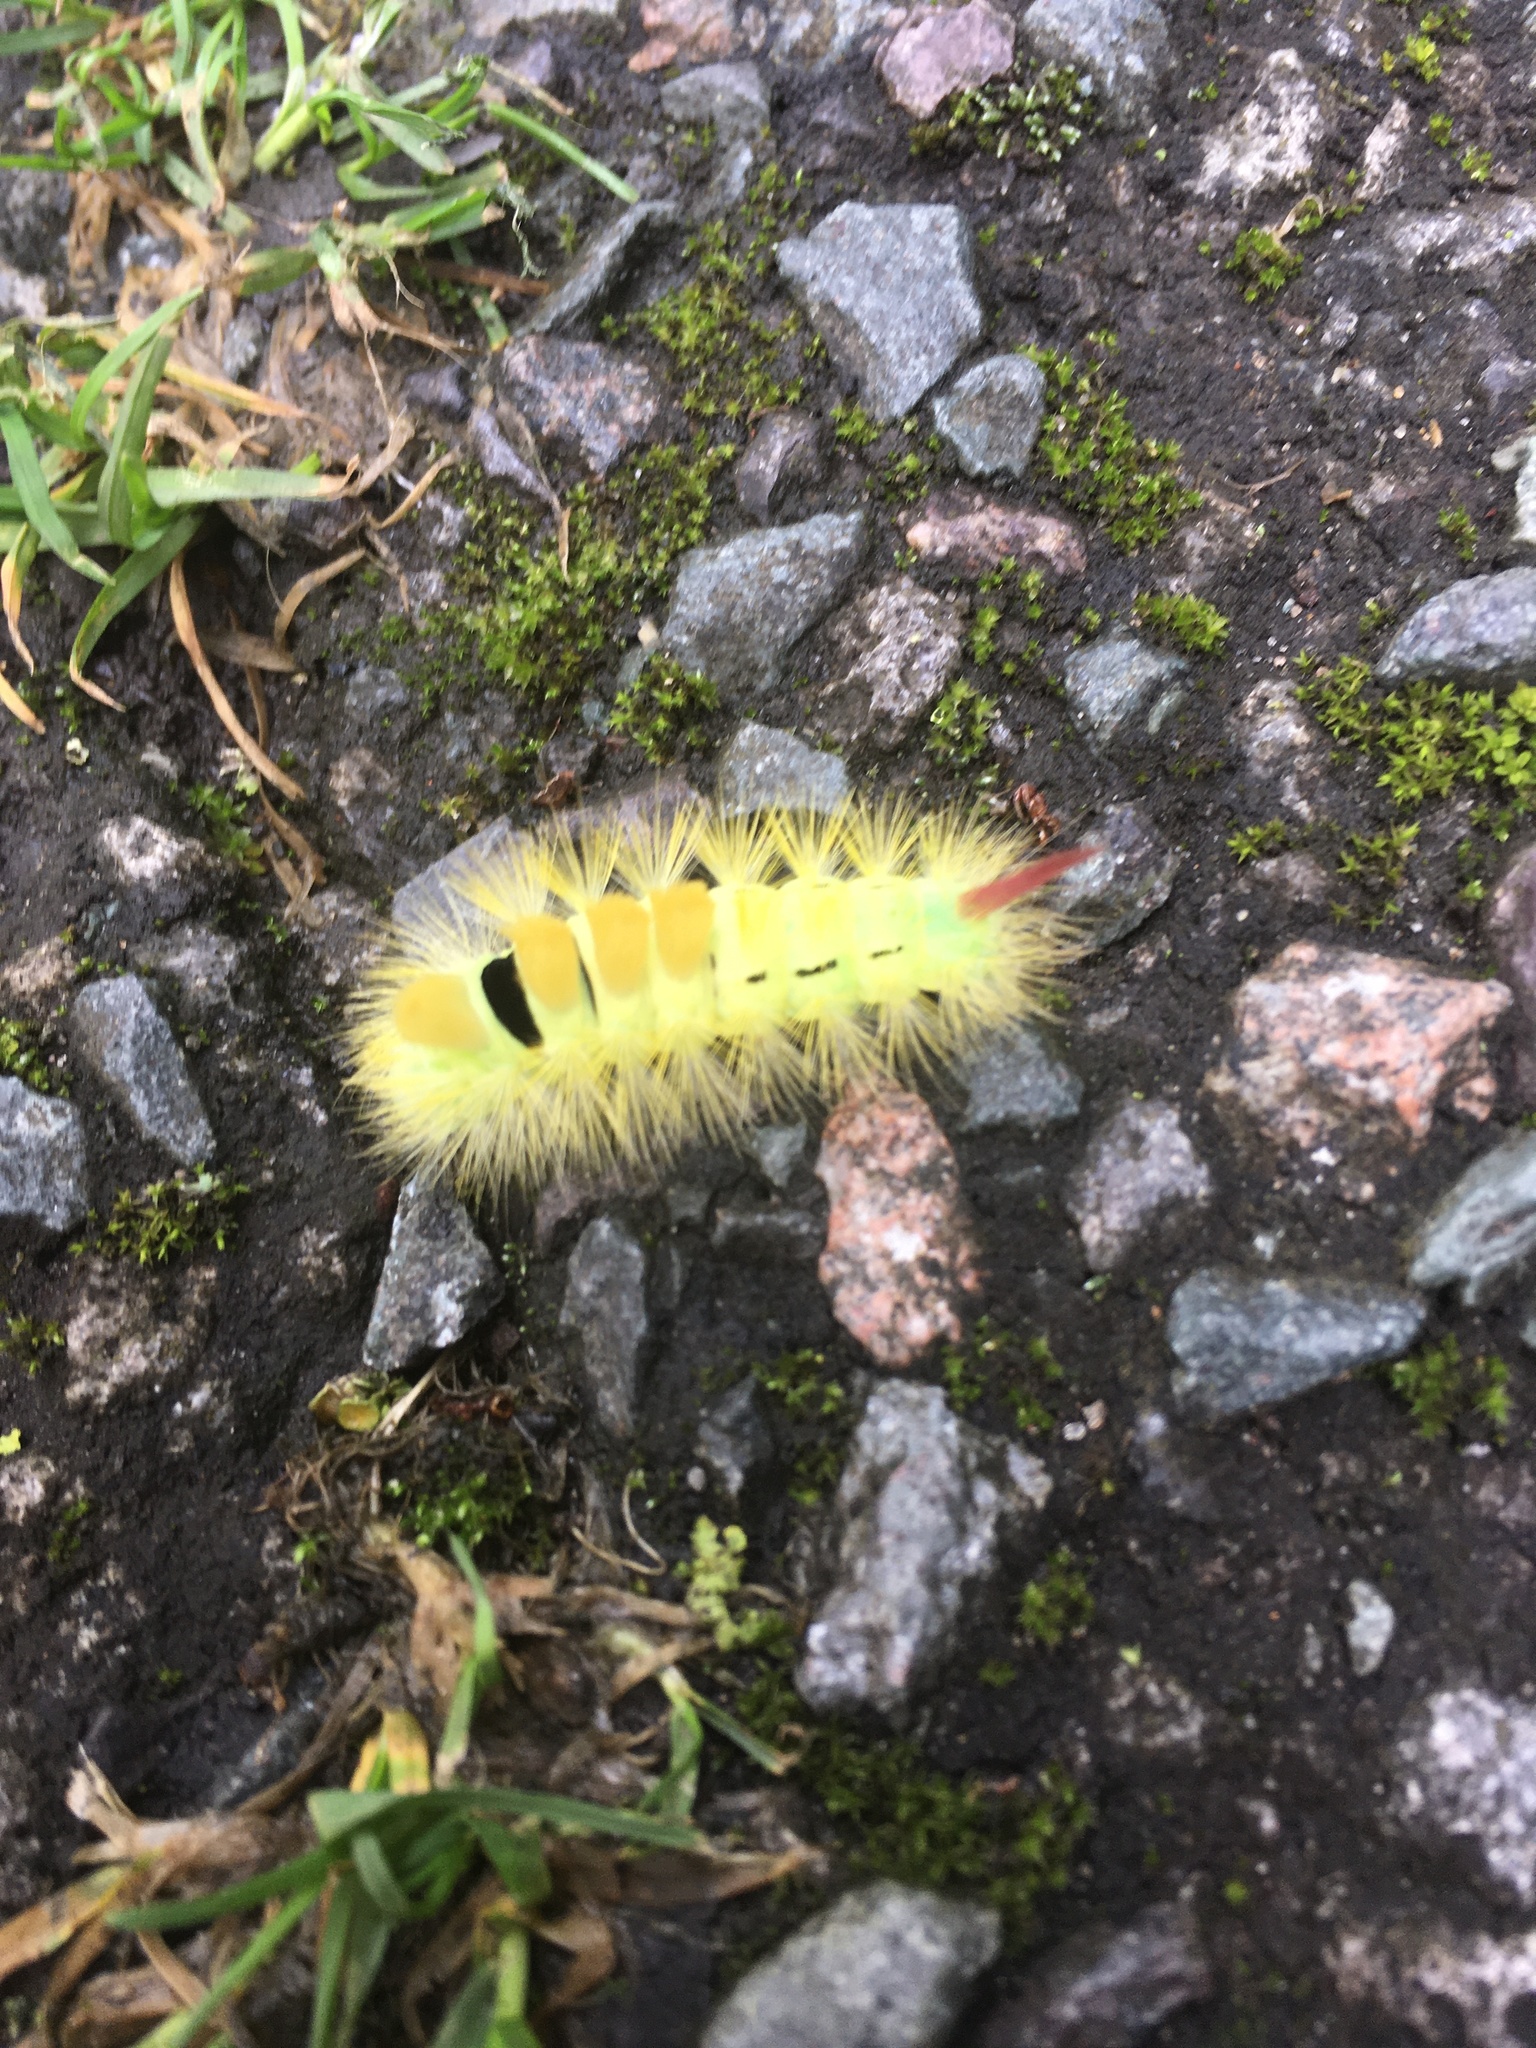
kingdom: Animalia
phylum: Arthropoda
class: Insecta
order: Lepidoptera
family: Erebidae
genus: Calliteara
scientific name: Calliteara pudibunda
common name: Pale tussock
